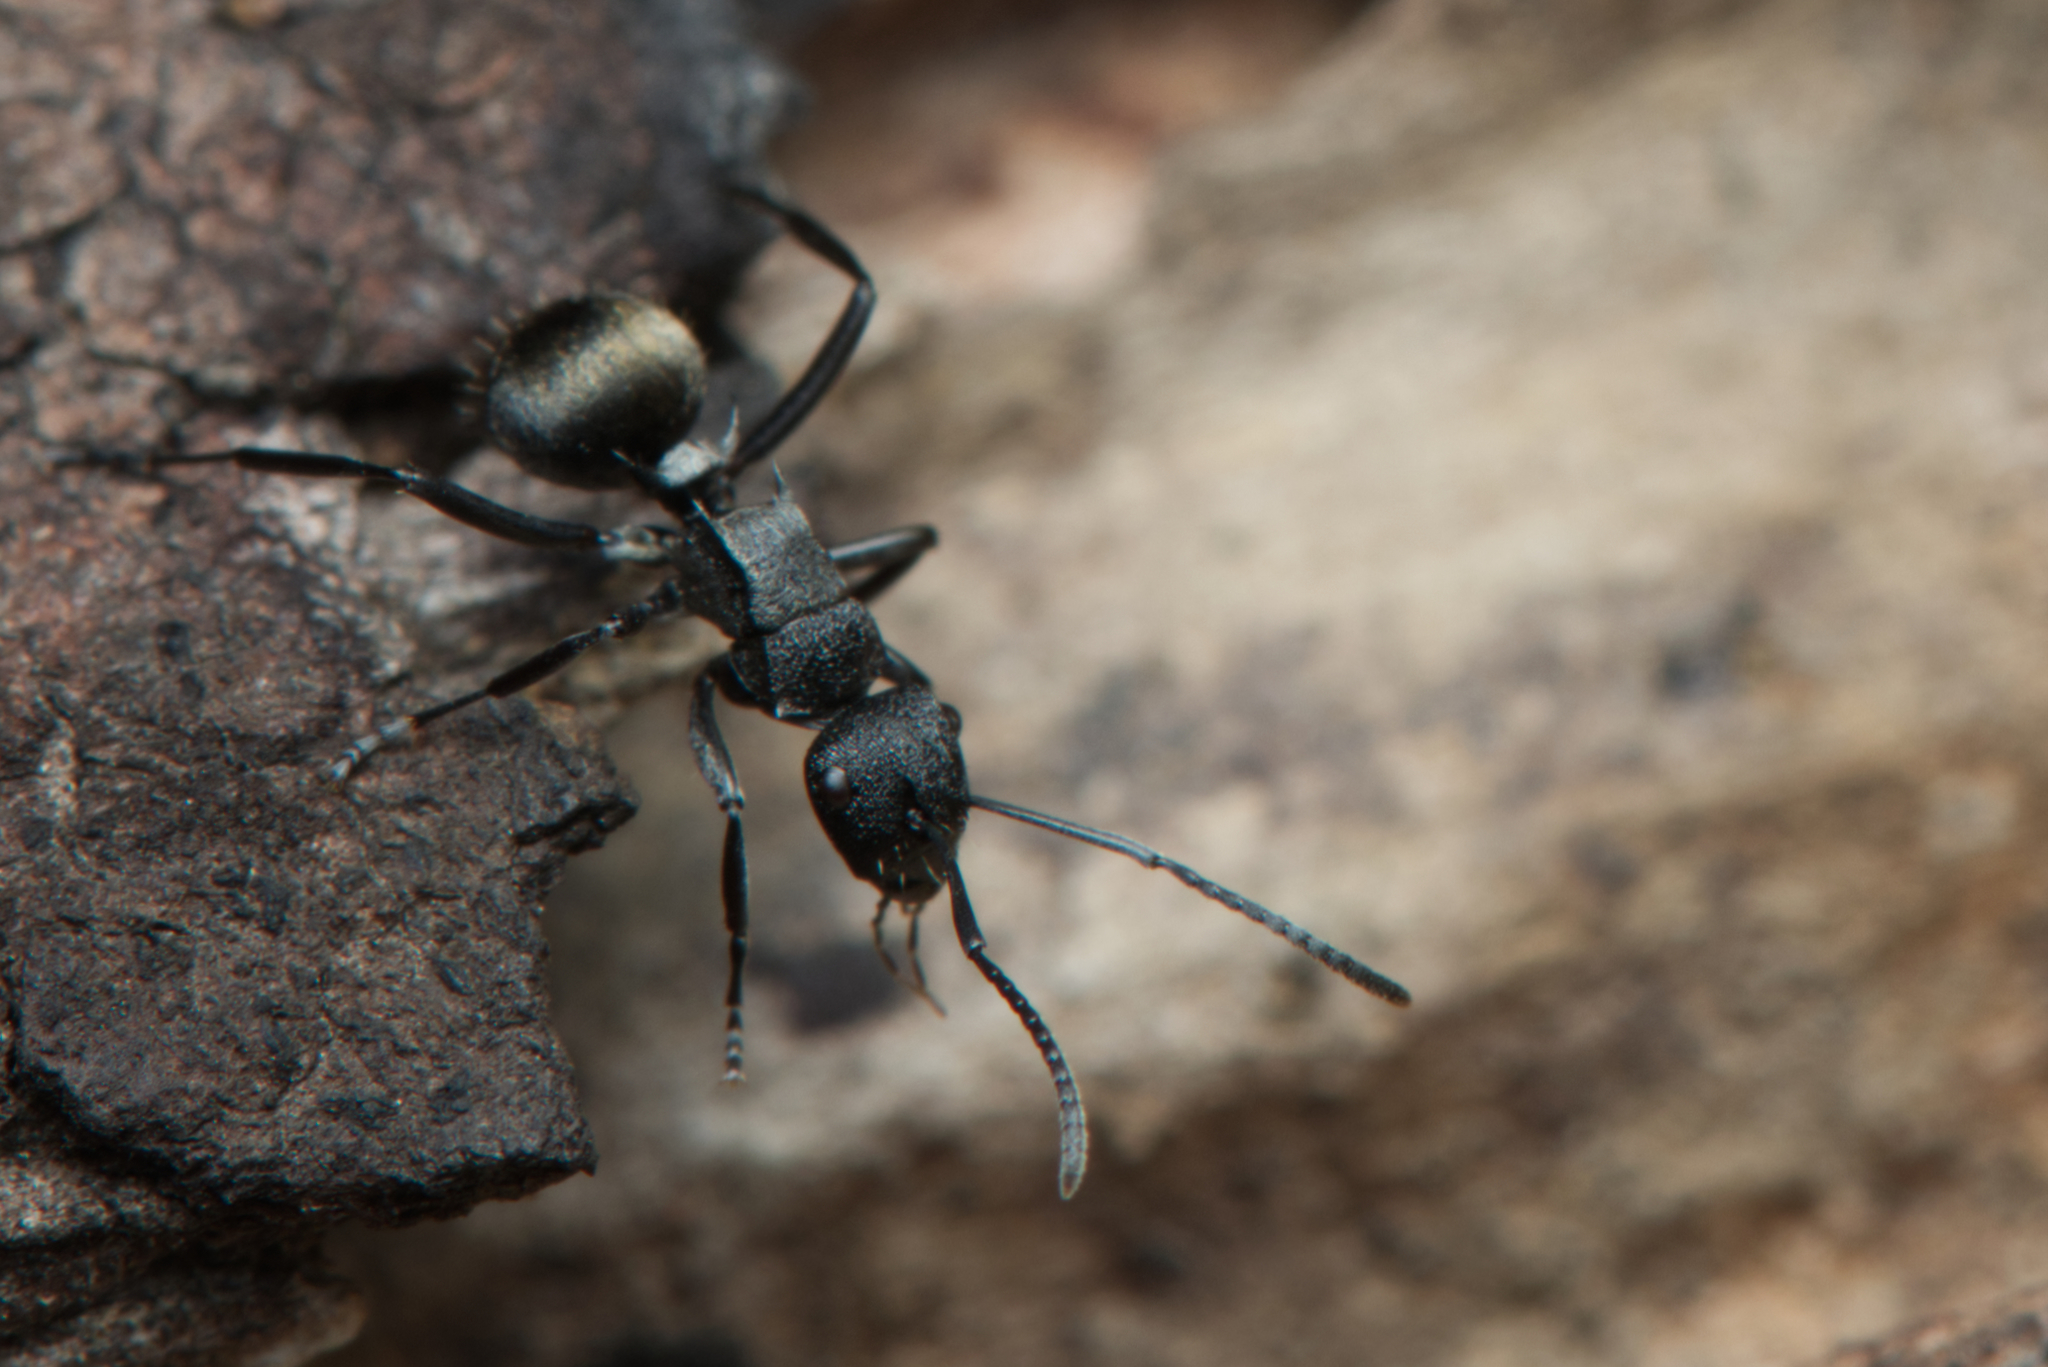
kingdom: Animalia
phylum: Arthropoda
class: Insecta
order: Hymenoptera
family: Formicidae
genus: Polyrhachis
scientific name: Polyrhachis mjobergi
